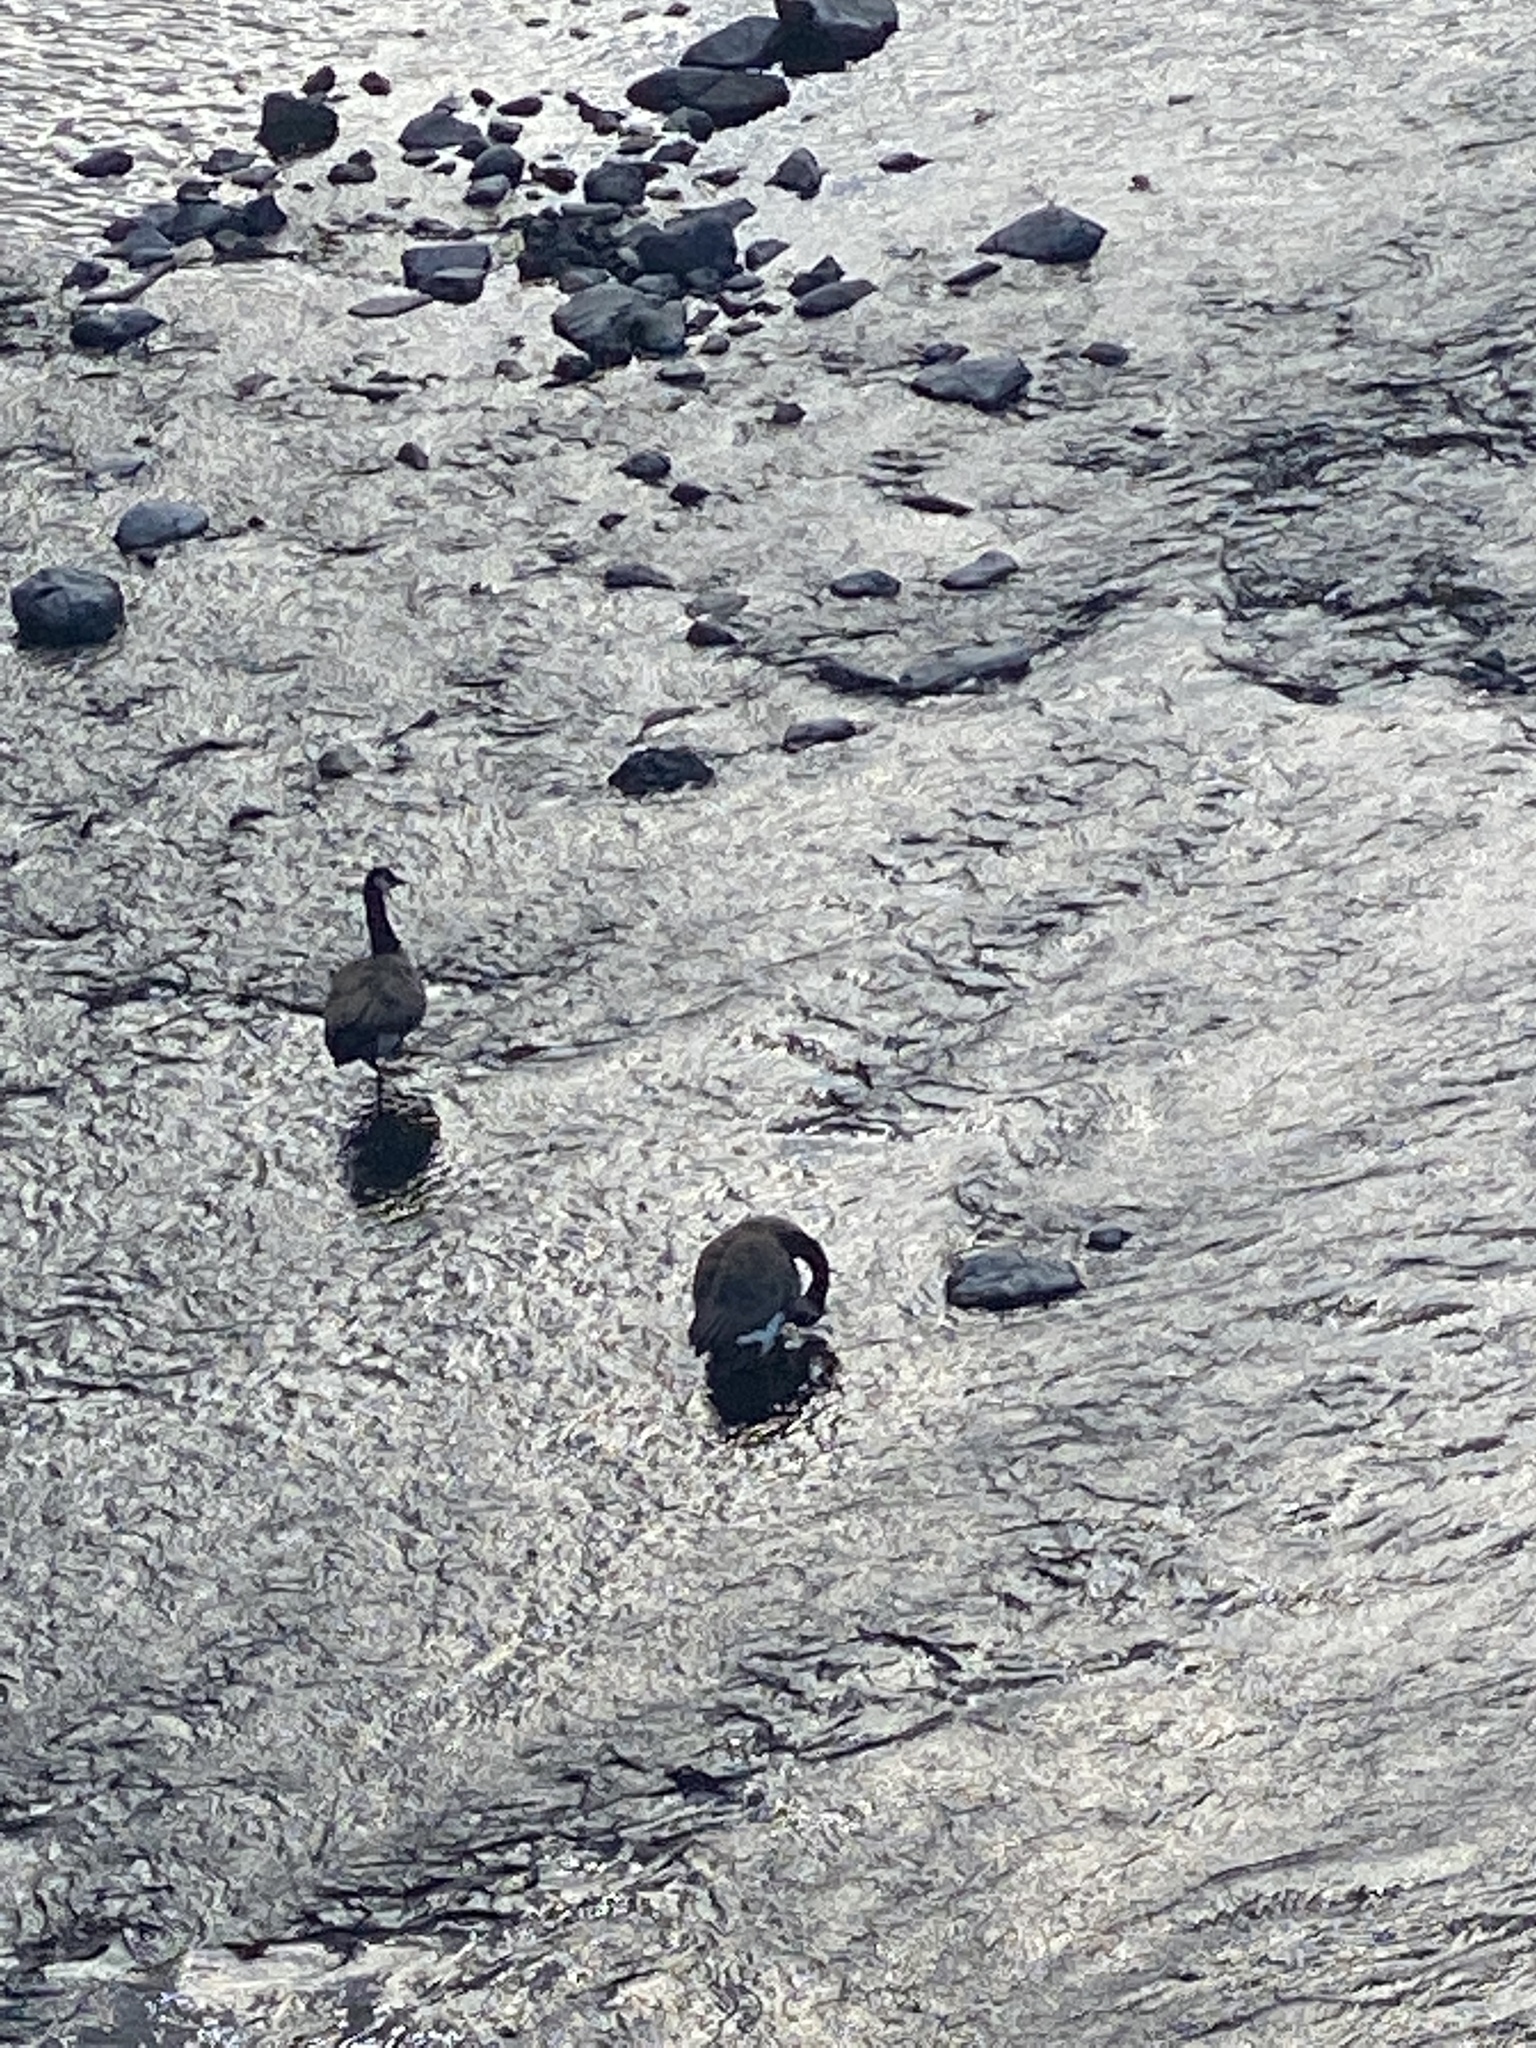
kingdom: Animalia
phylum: Chordata
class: Aves
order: Anseriformes
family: Anatidae
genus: Branta
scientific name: Branta canadensis
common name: Canada goose
